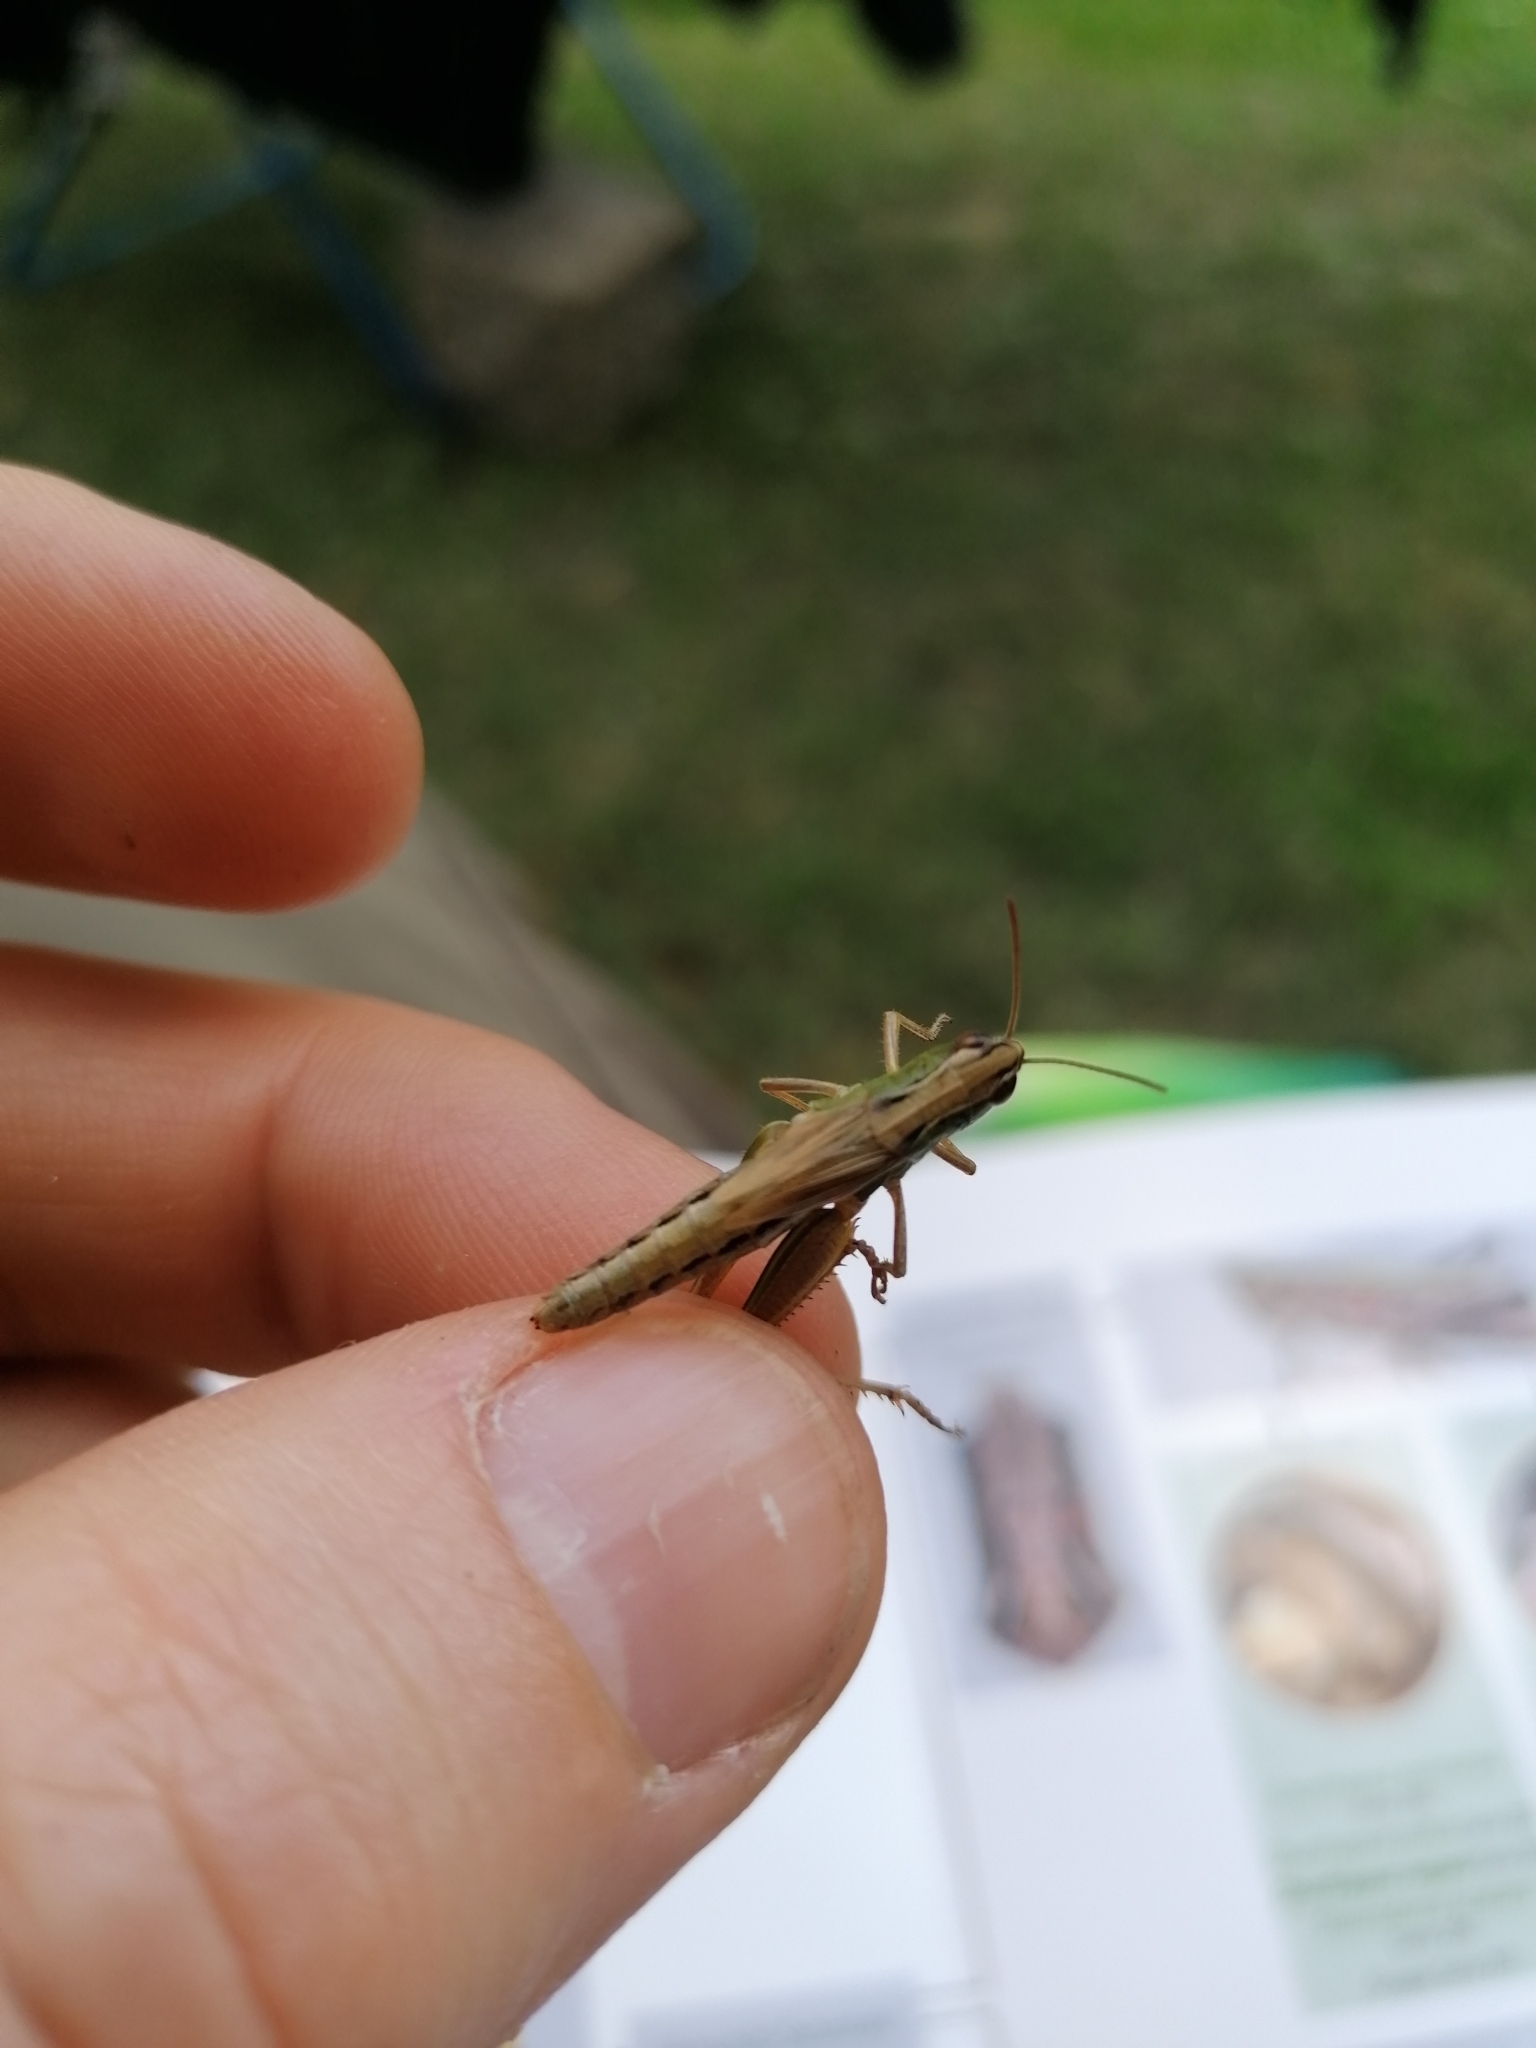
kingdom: Animalia
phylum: Arthropoda
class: Insecta
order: Orthoptera
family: Acrididae
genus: Pseudochorthippus
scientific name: Pseudochorthippus parallelus
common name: Meadow grasshopper
